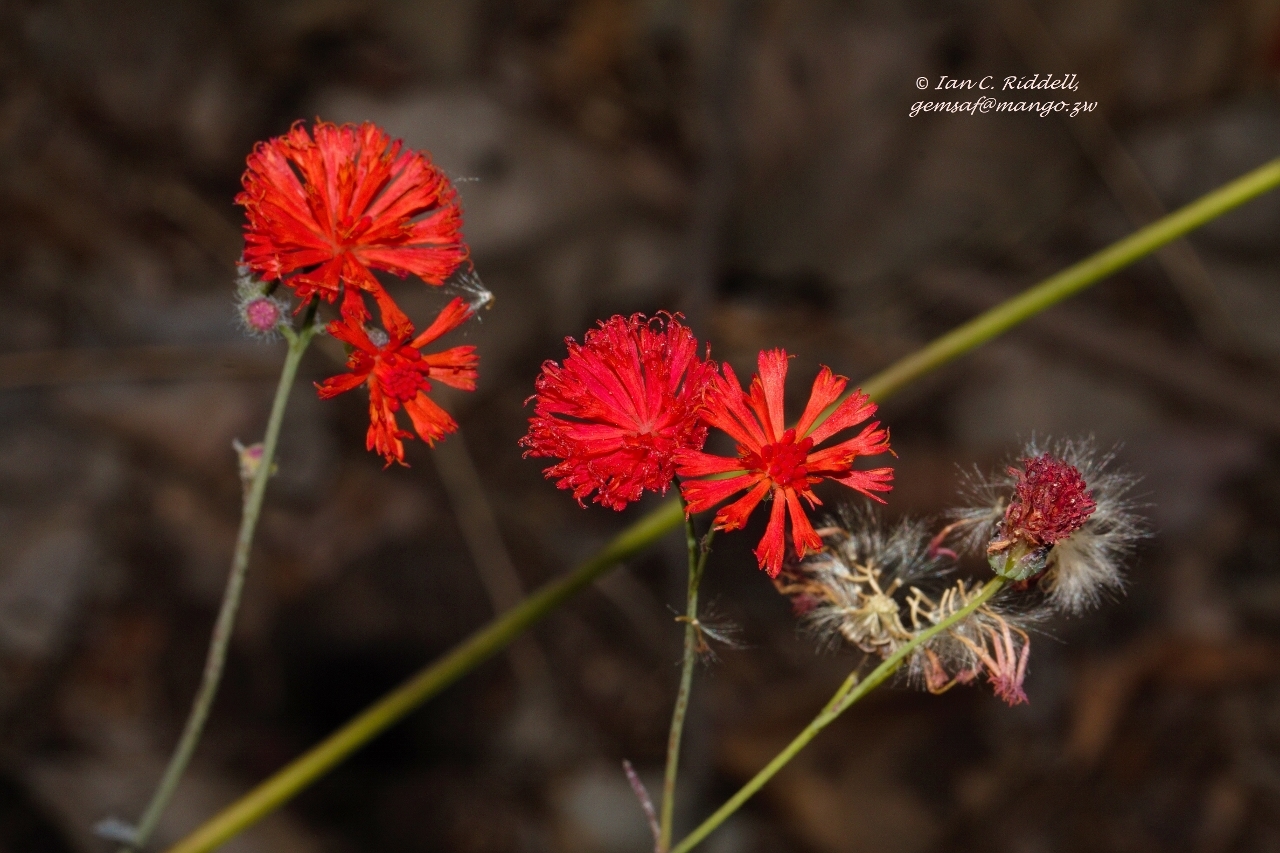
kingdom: Plantae
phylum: Tracheophyta
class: Magnoliopsida
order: Asterales
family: Asteraceae
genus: Emilia
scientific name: Emilia coccinea
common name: Scarlet tasselflower
